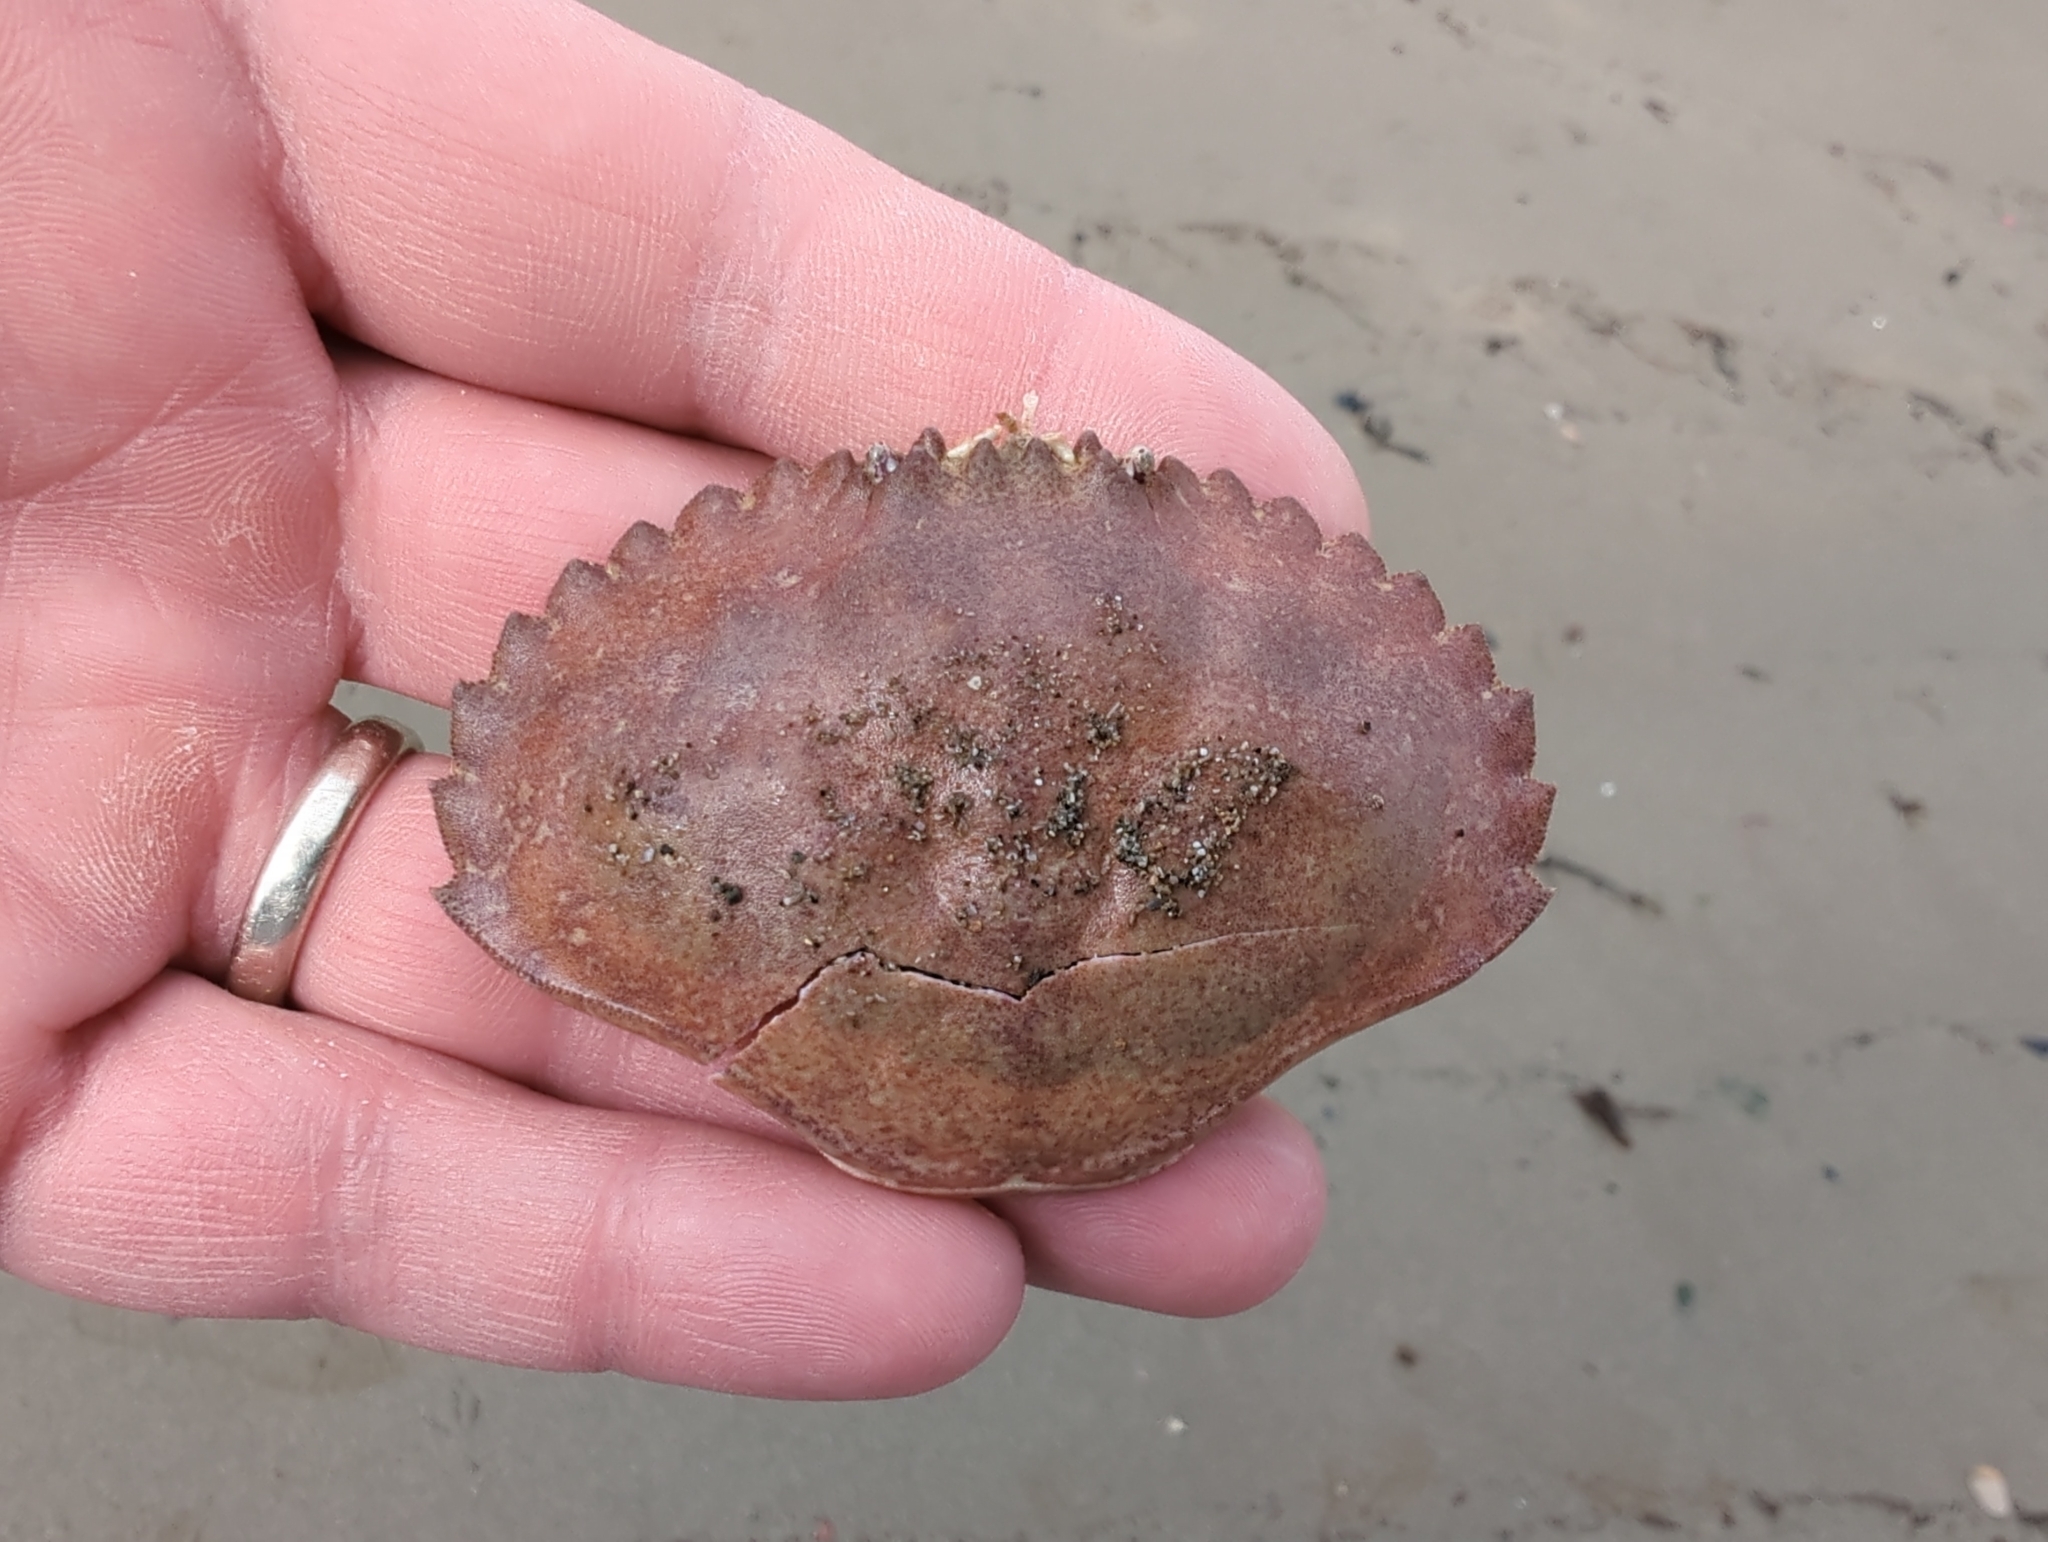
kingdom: Animalia
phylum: Arthropoda
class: Malacostraca
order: Decapoda
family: Cancridae
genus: Metacarcinus
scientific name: Metacarcinus anthonyi
